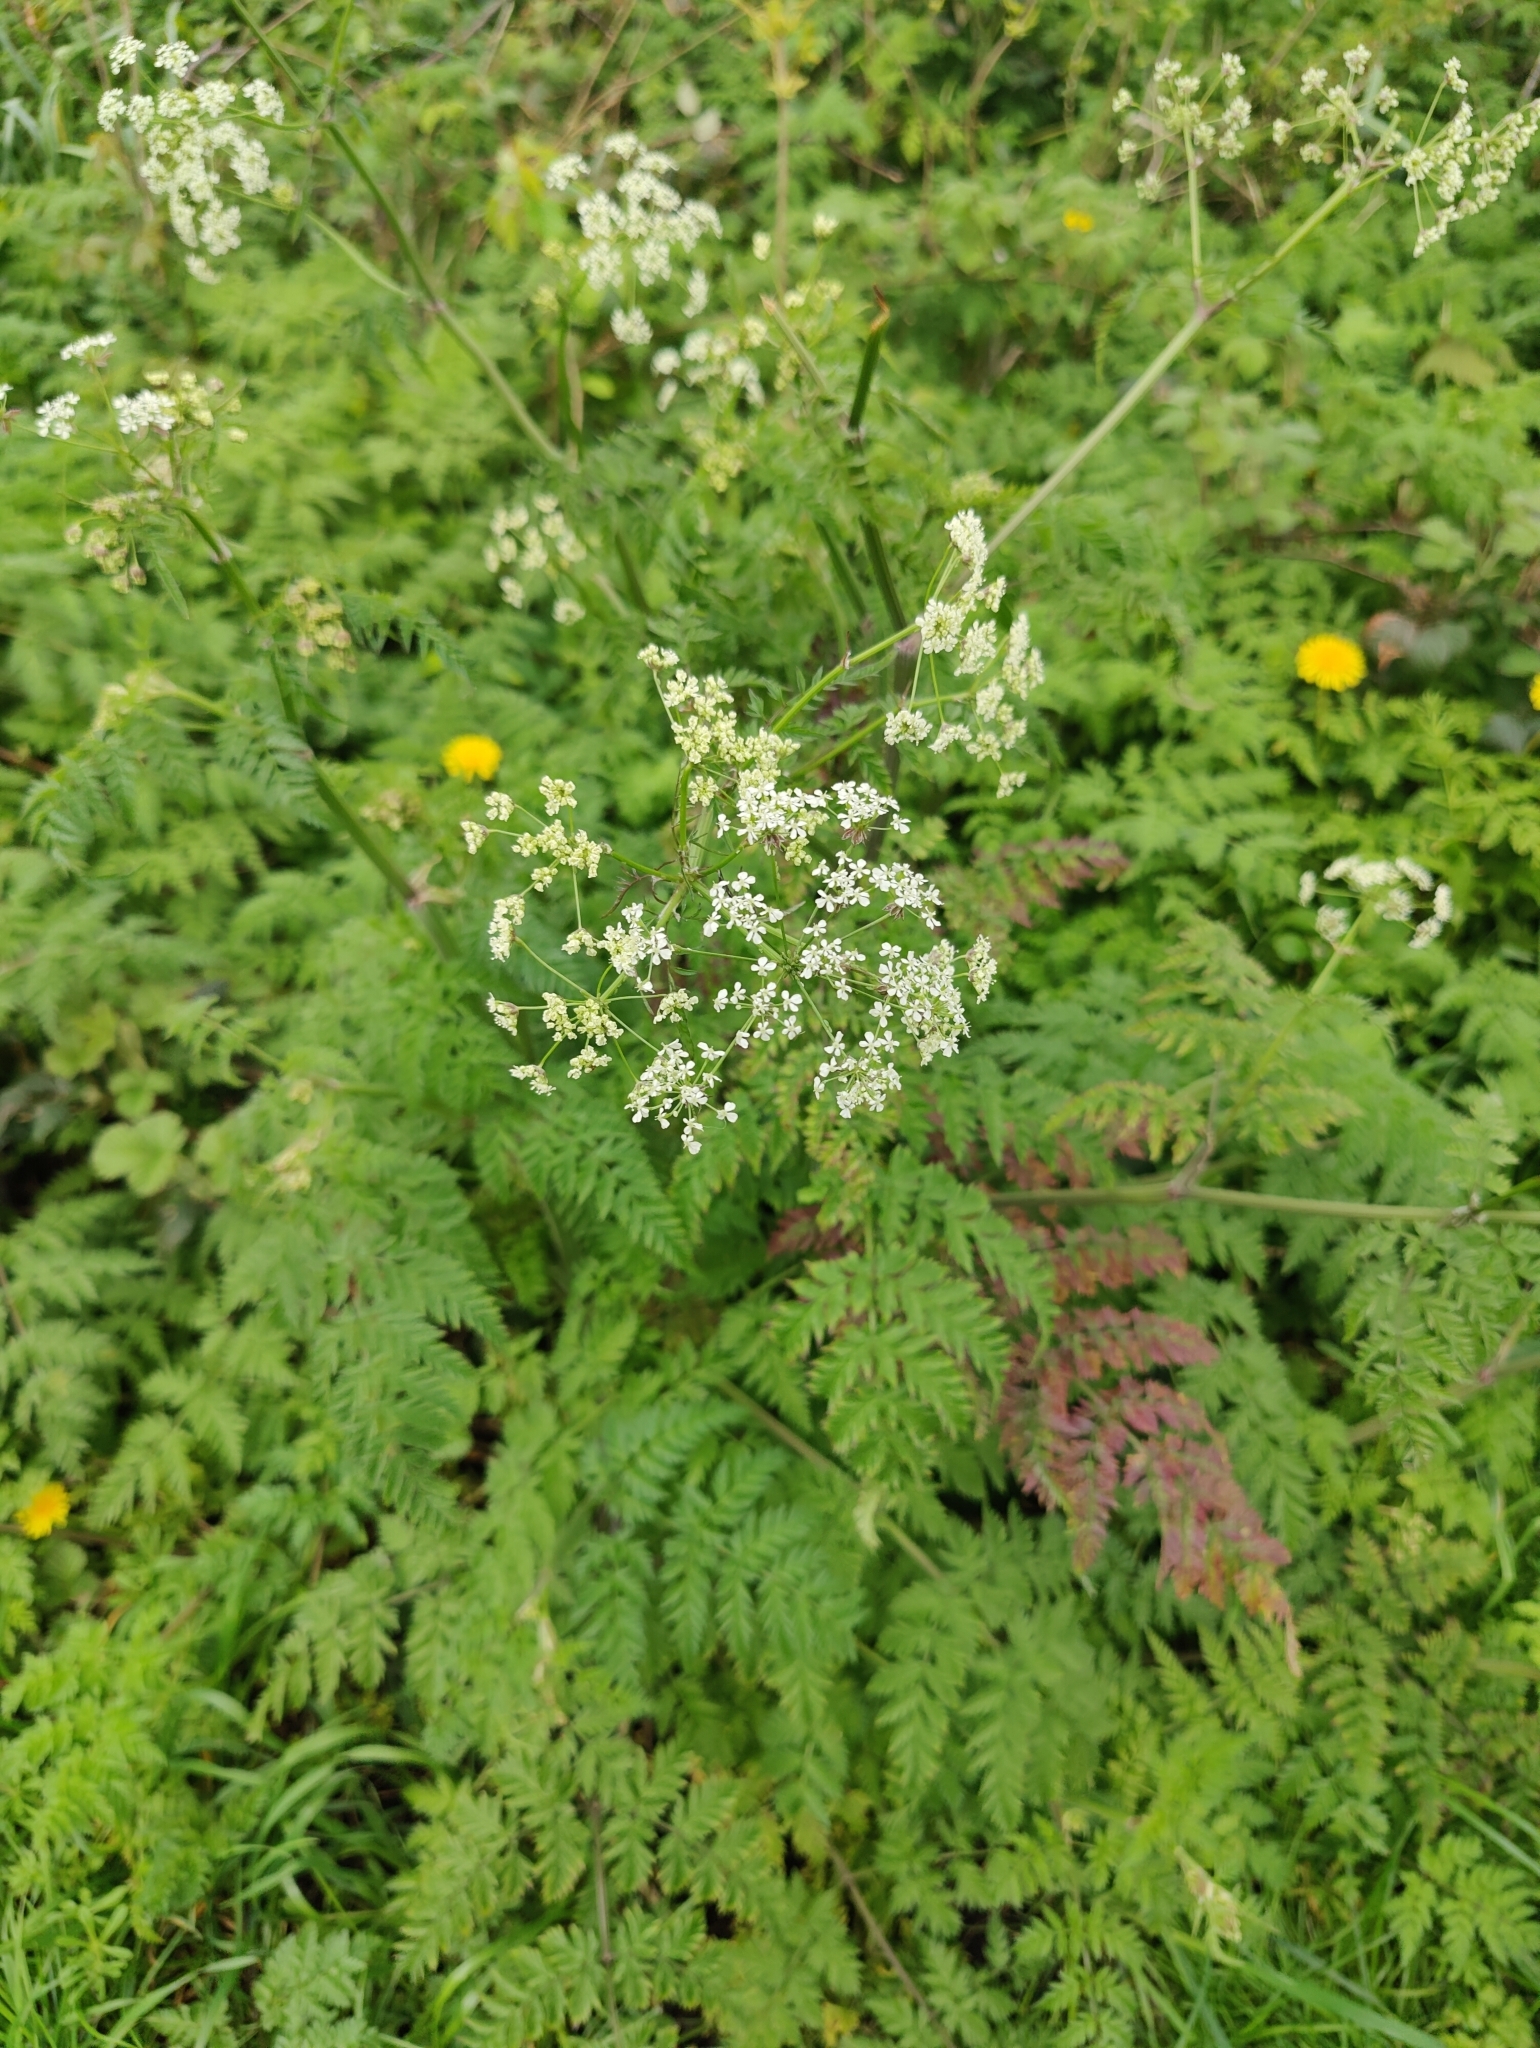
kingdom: Plantae
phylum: Tracheophyta
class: Magnoliopsida
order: Apiales
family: Apiaceae
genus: Anthriscus
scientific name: Anthriscus sylvestris
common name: Cow parsley
